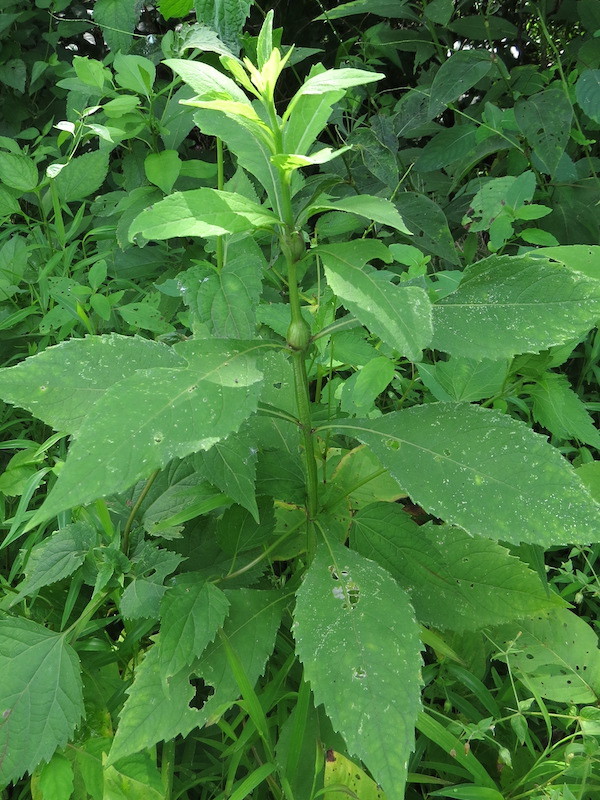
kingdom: Animalia
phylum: Arthropoda
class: Insecta
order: Diptera
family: Cecidomyiidae
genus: Neolasioptera
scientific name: Neolasioptera verbesinae
